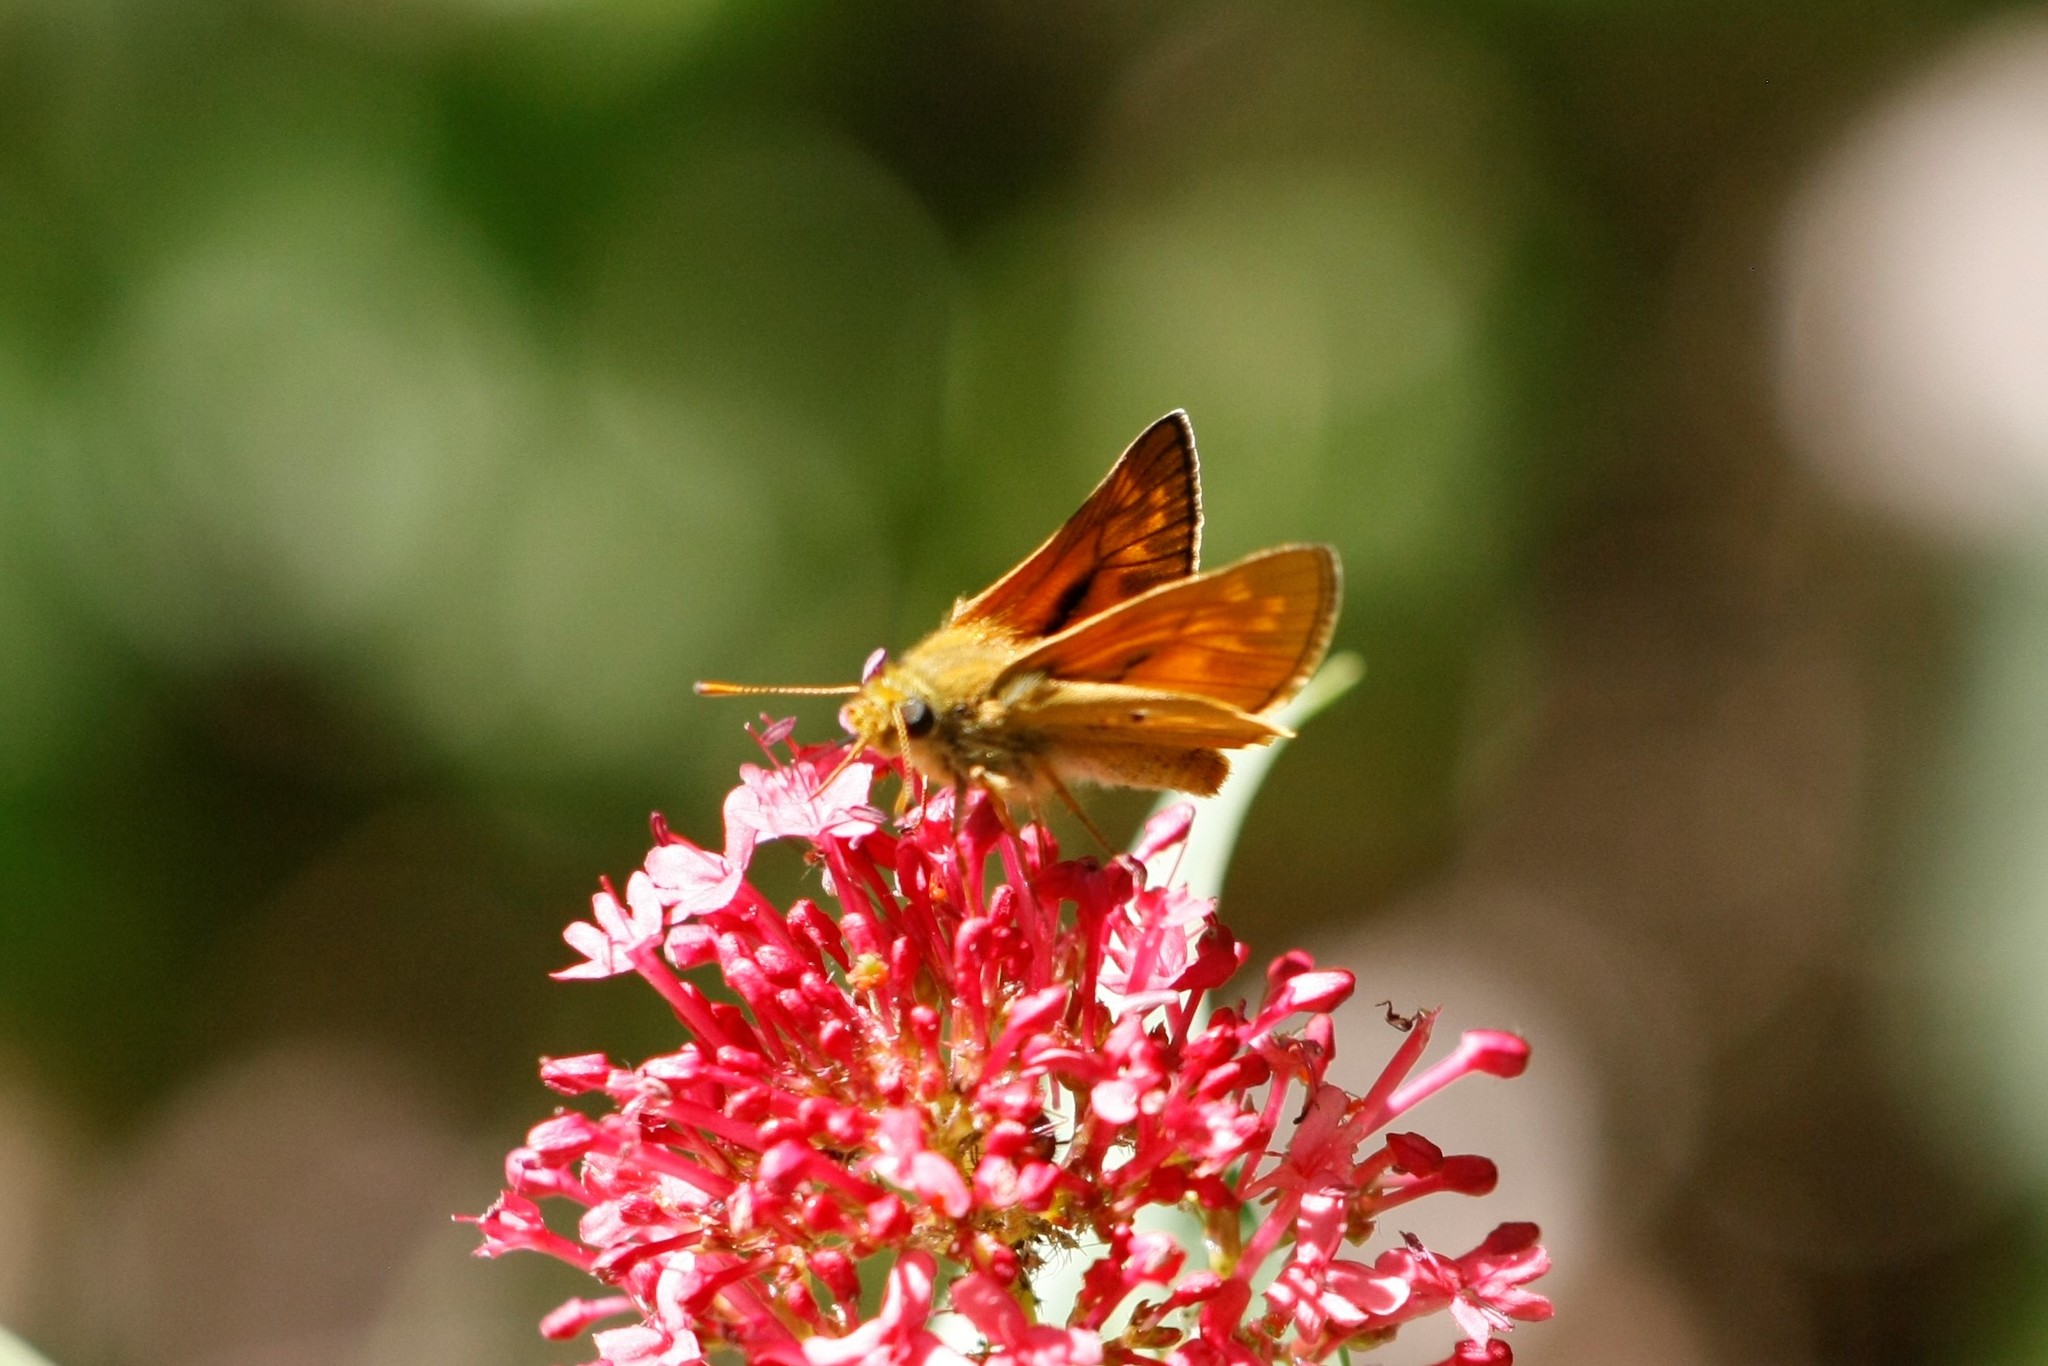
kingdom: Animalia
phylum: Arthropoda
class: Insecta
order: Lepidoptera
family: Hesperiidae
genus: Ochlodes
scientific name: Ochlodes venata
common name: Large skipper
